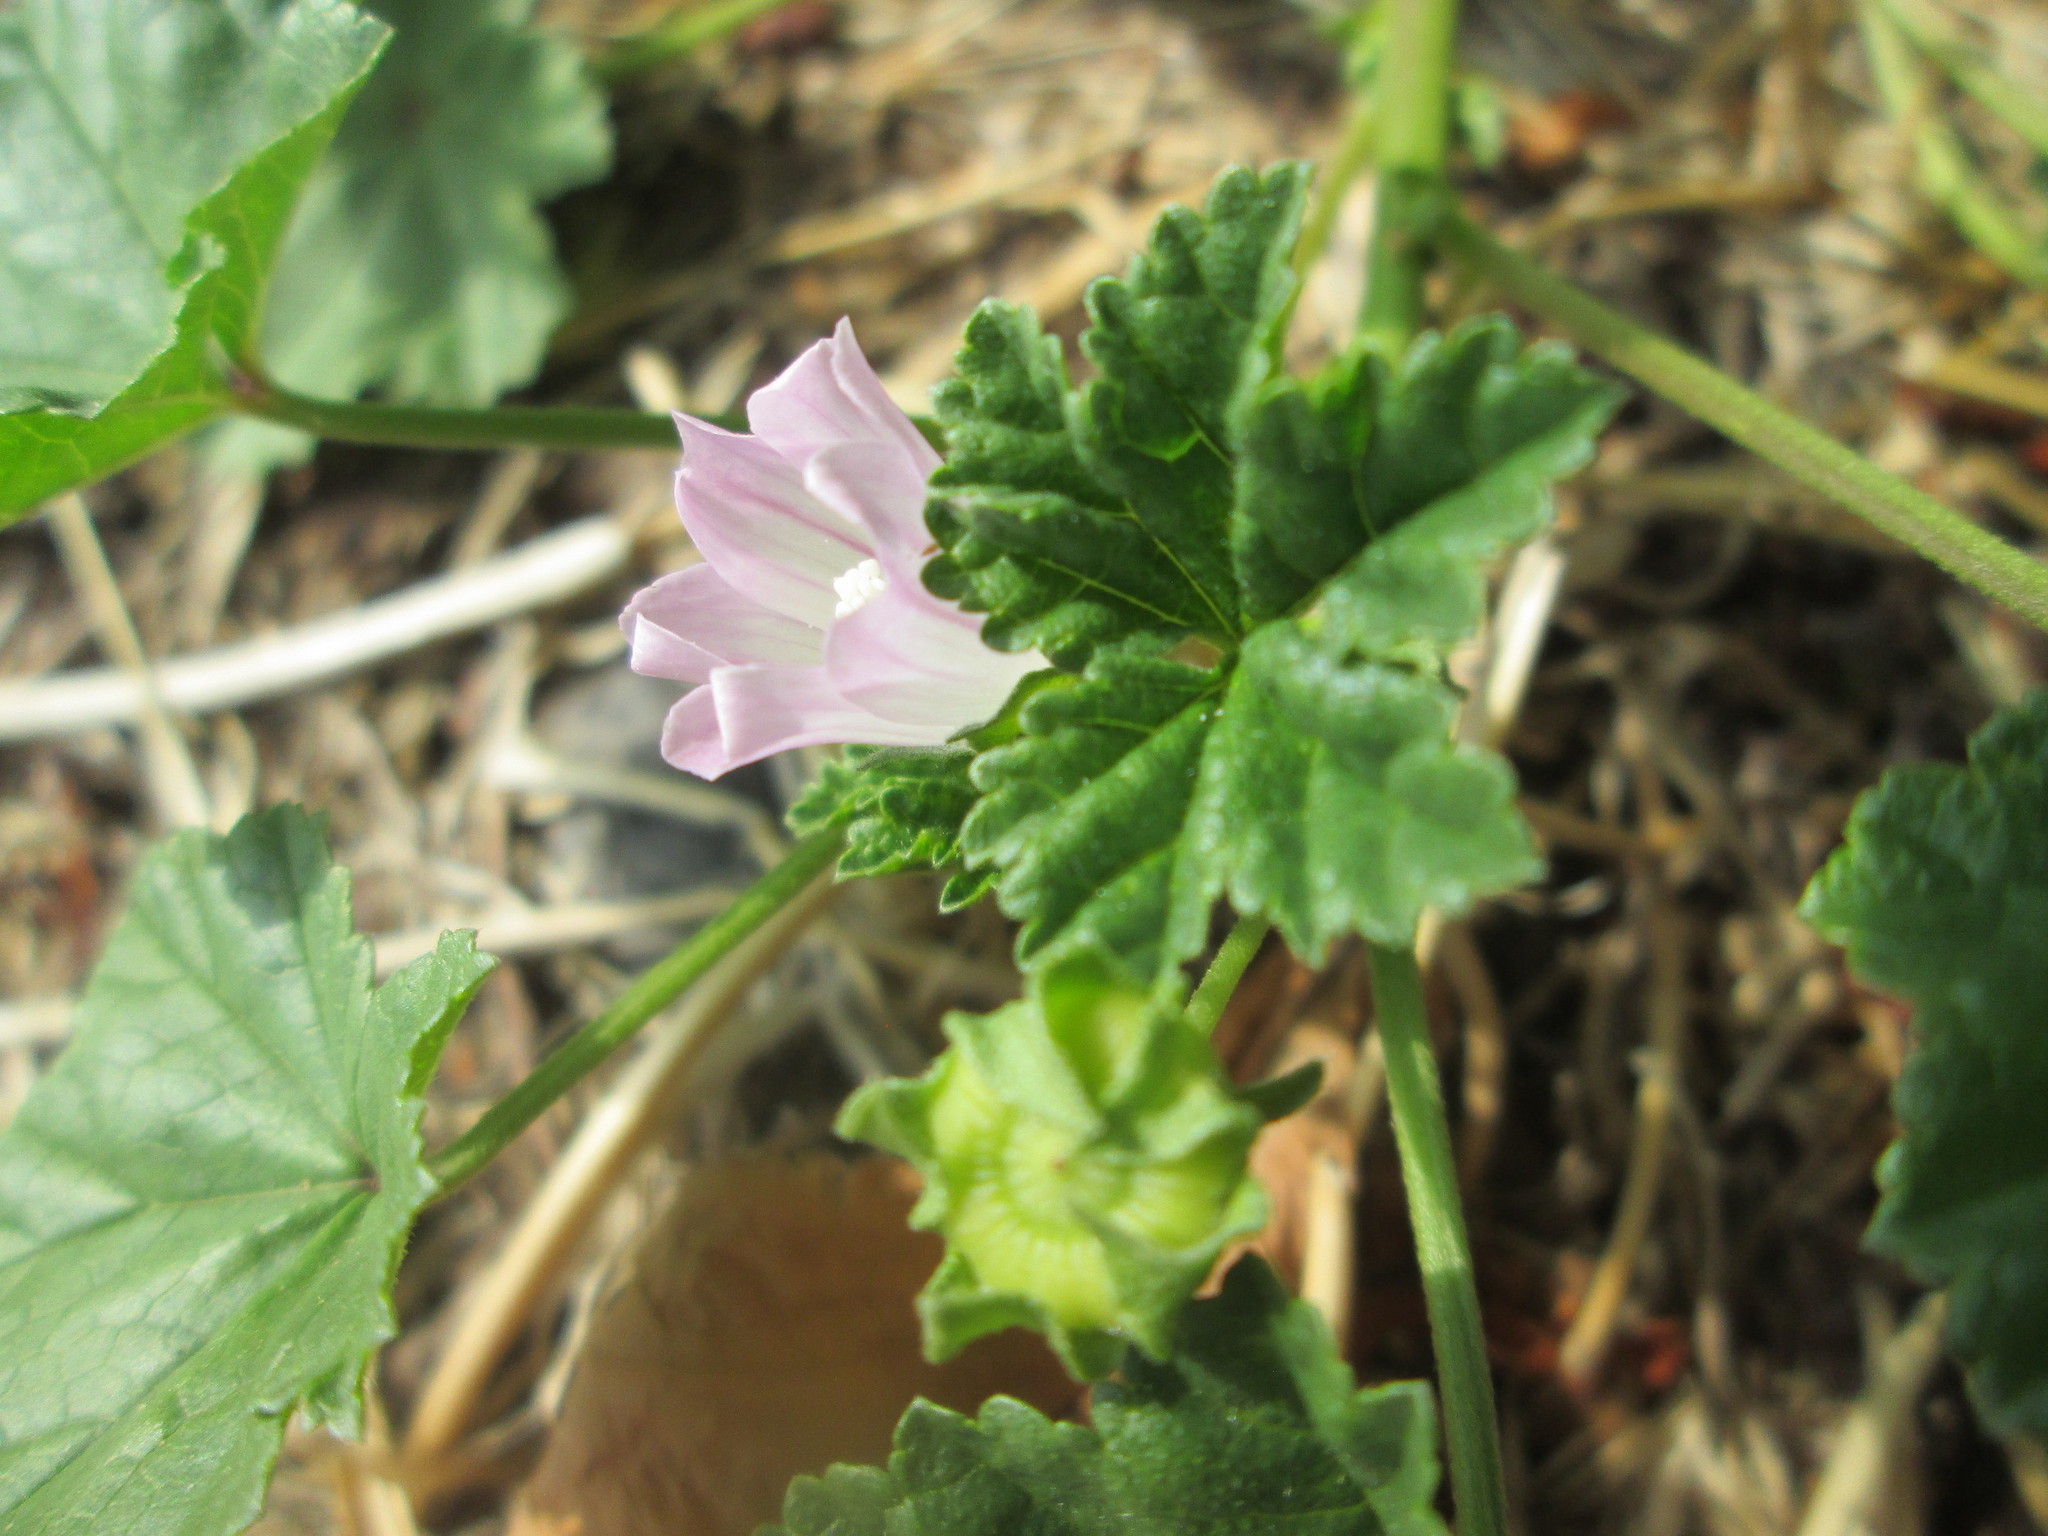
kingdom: Plantae
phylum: Tracheophyta
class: Magnoliopsida
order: Malvales
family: Malvaceae
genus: Malva
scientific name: Malva neglecta
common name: Common mallow
